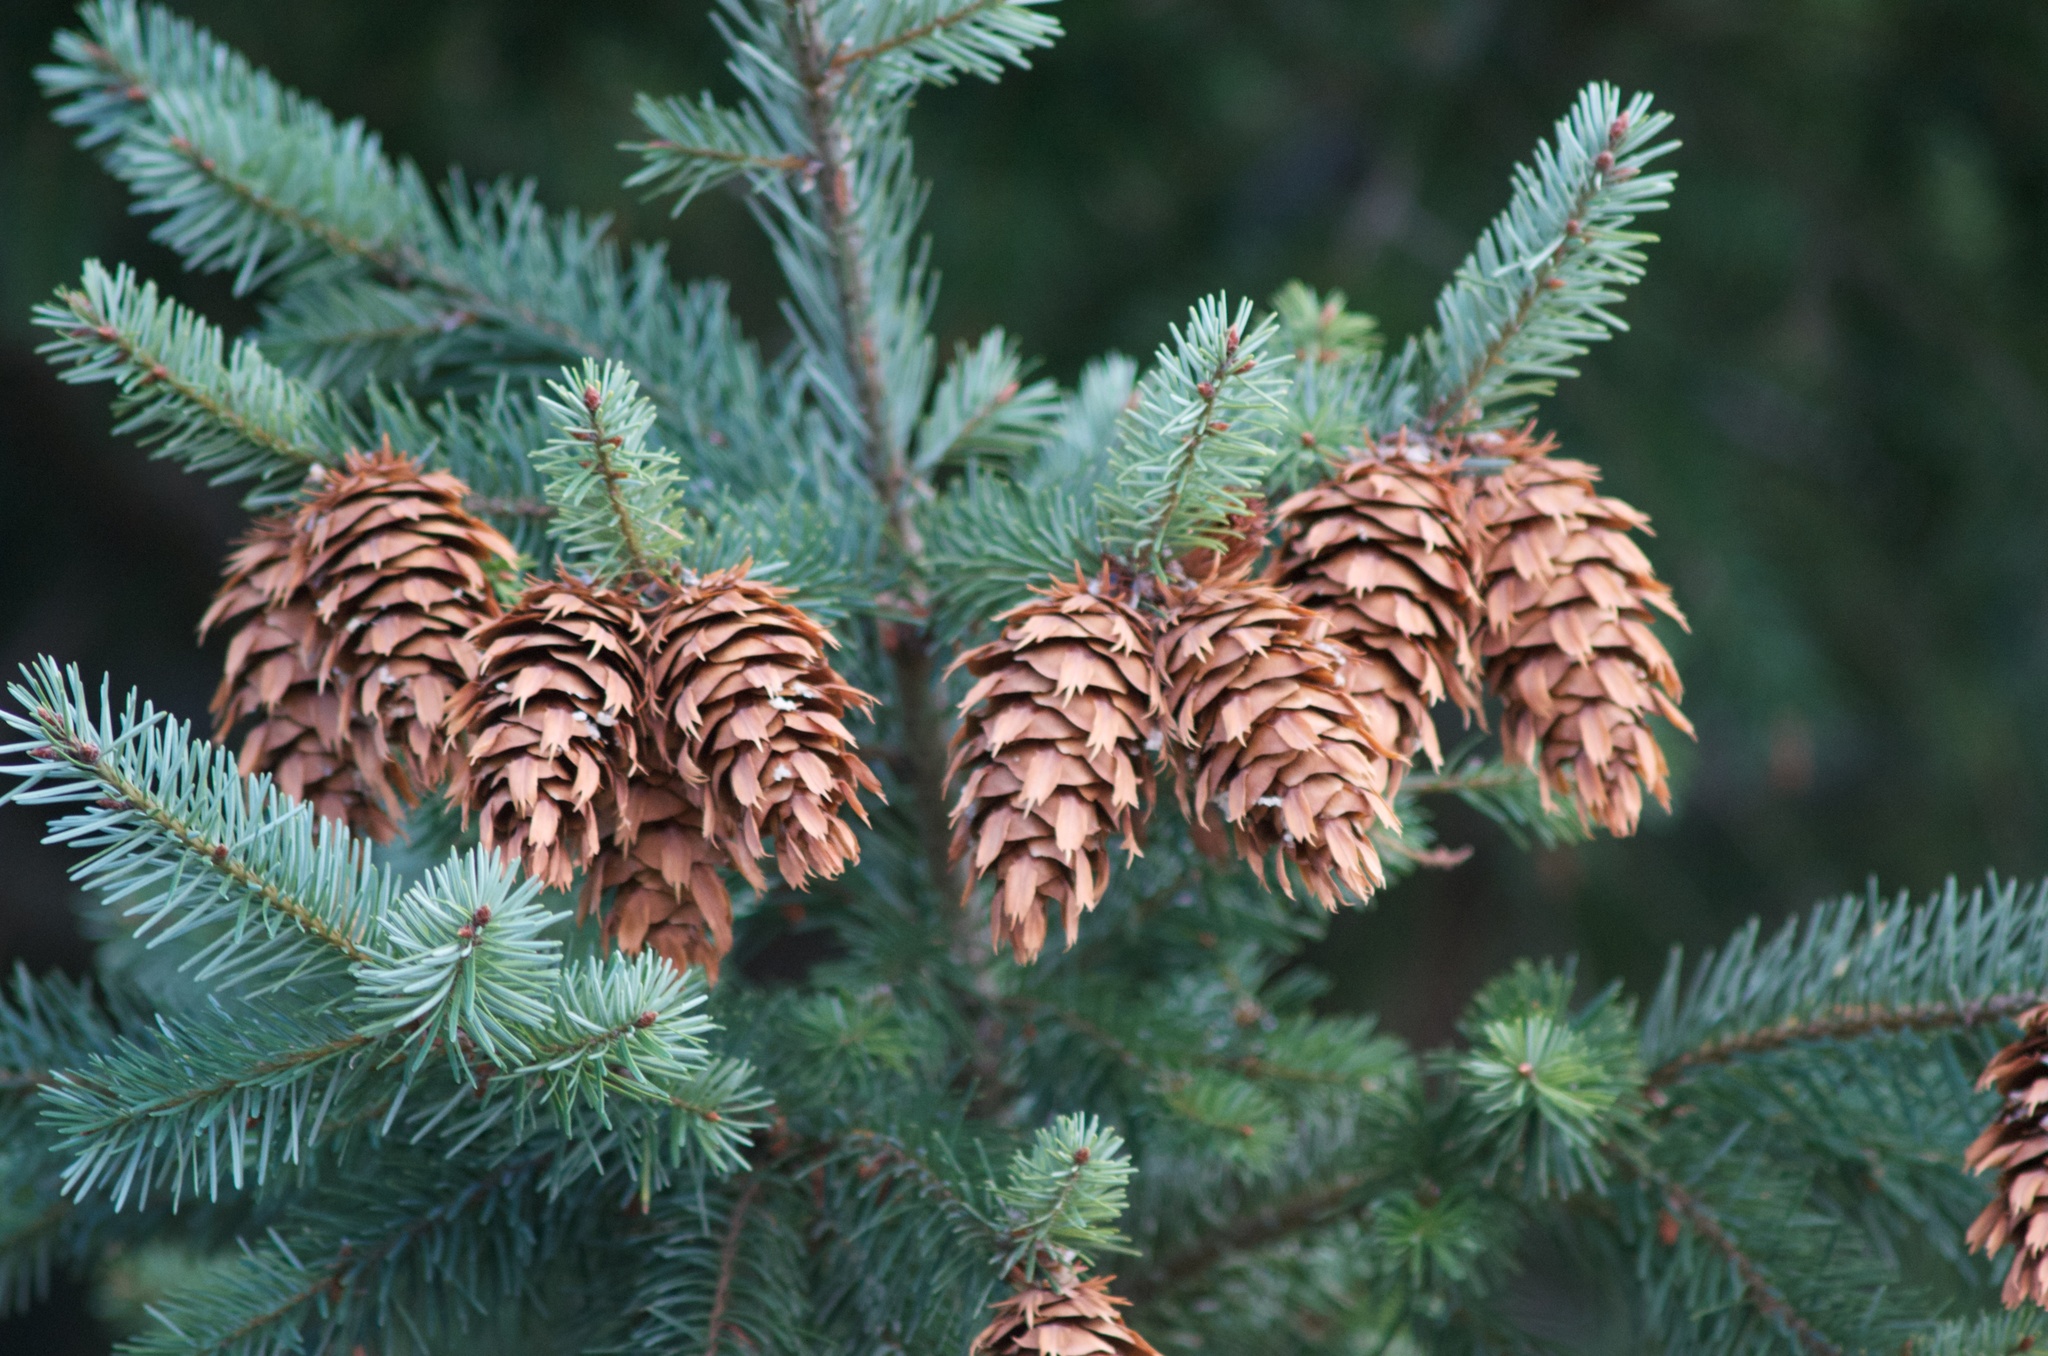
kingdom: Plantae
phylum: Tracheophyta
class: Pinopsida
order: Pinales
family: Pinaceae
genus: Pseudotsuga
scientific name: Pseudotsuga menziesii
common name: Douglas fir
